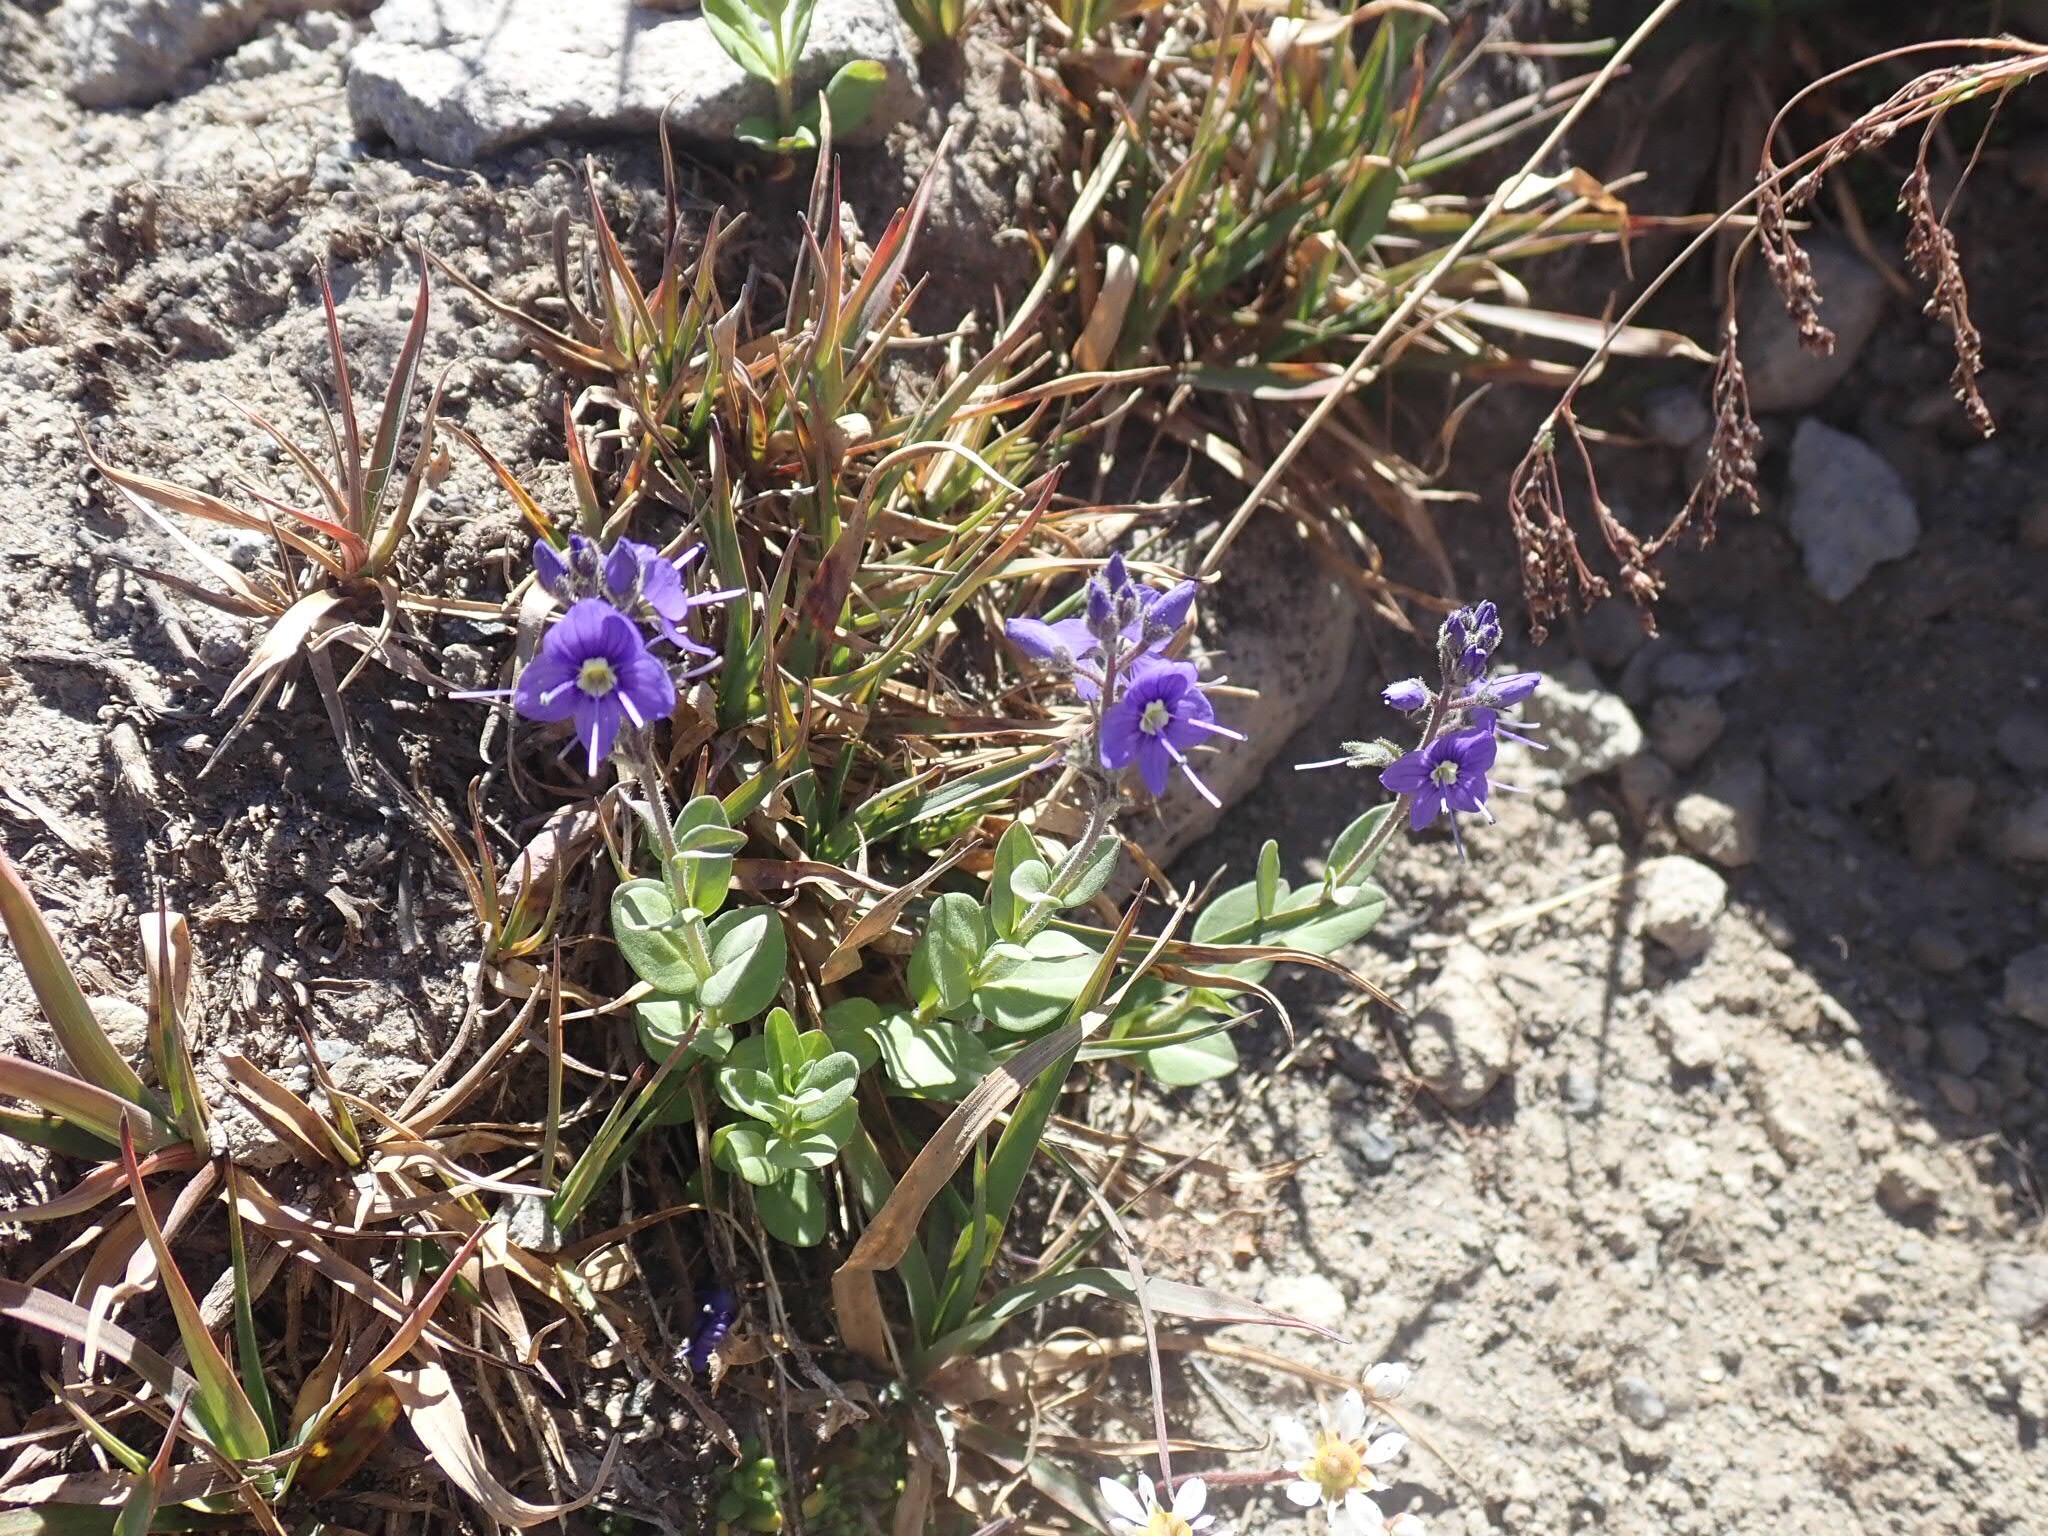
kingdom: Plantae
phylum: Tracheophyta
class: Magnoliopsida
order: Lamiales
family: Plantaginaceae
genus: Veronica
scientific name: Veronica cusickii
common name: Cusick's speedwell
